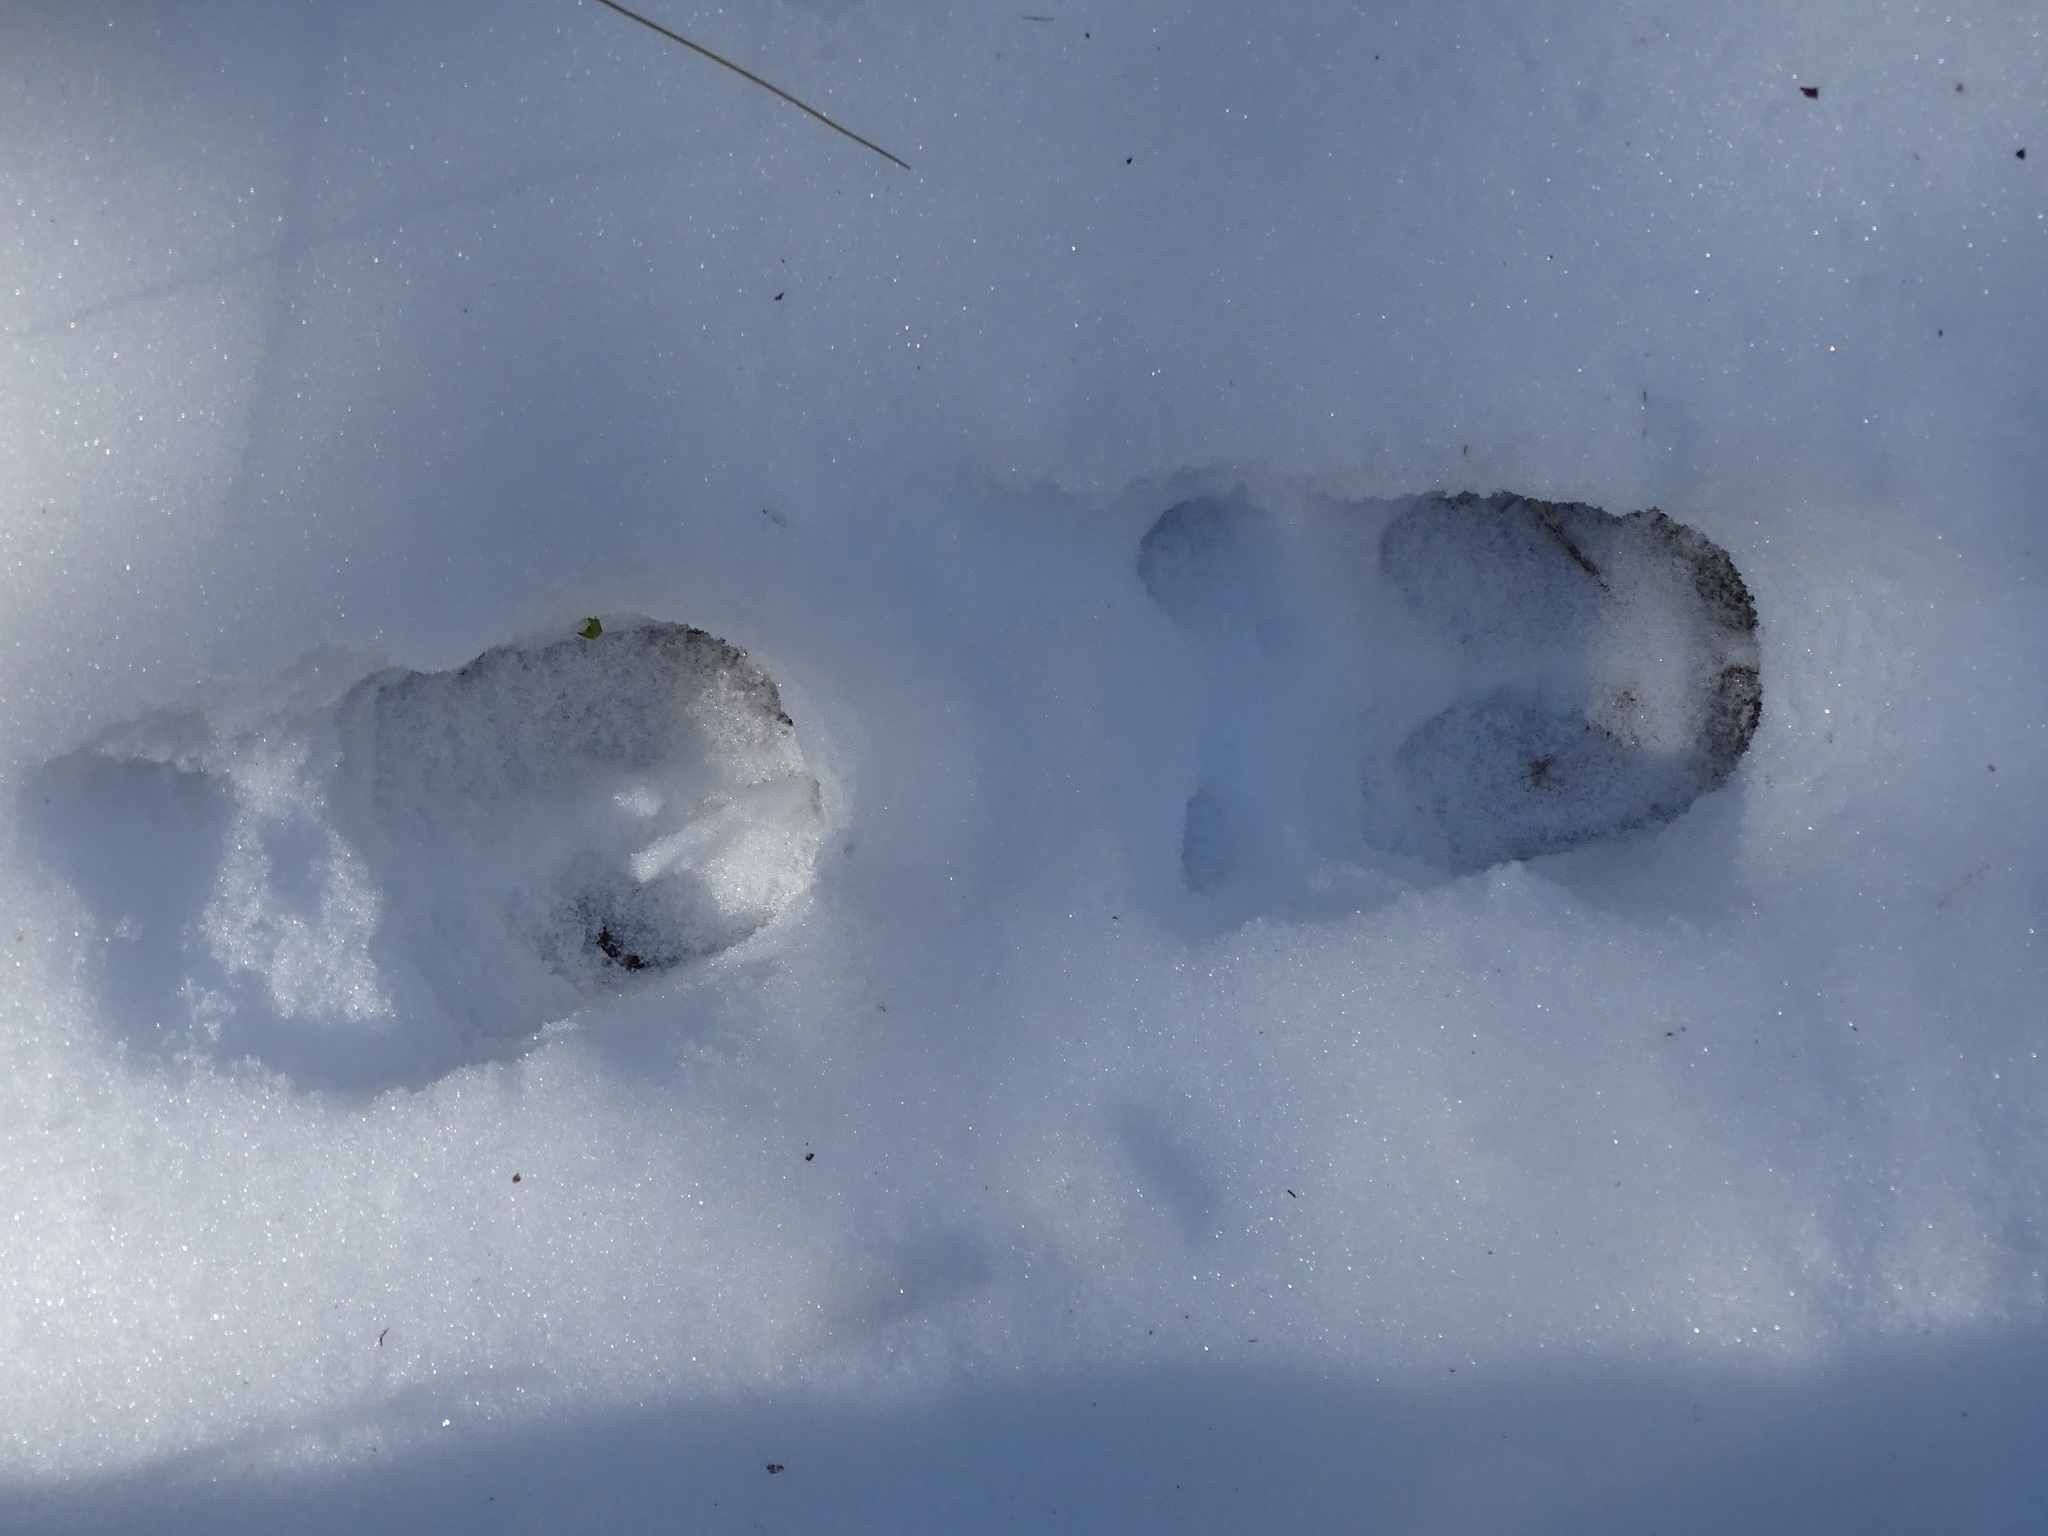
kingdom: Animalia
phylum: Chordata
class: Mammalia
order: Artiodactyla
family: Cervidae
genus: Odocoileus
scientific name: Odocoileus virginianus
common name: White-tailed deer
